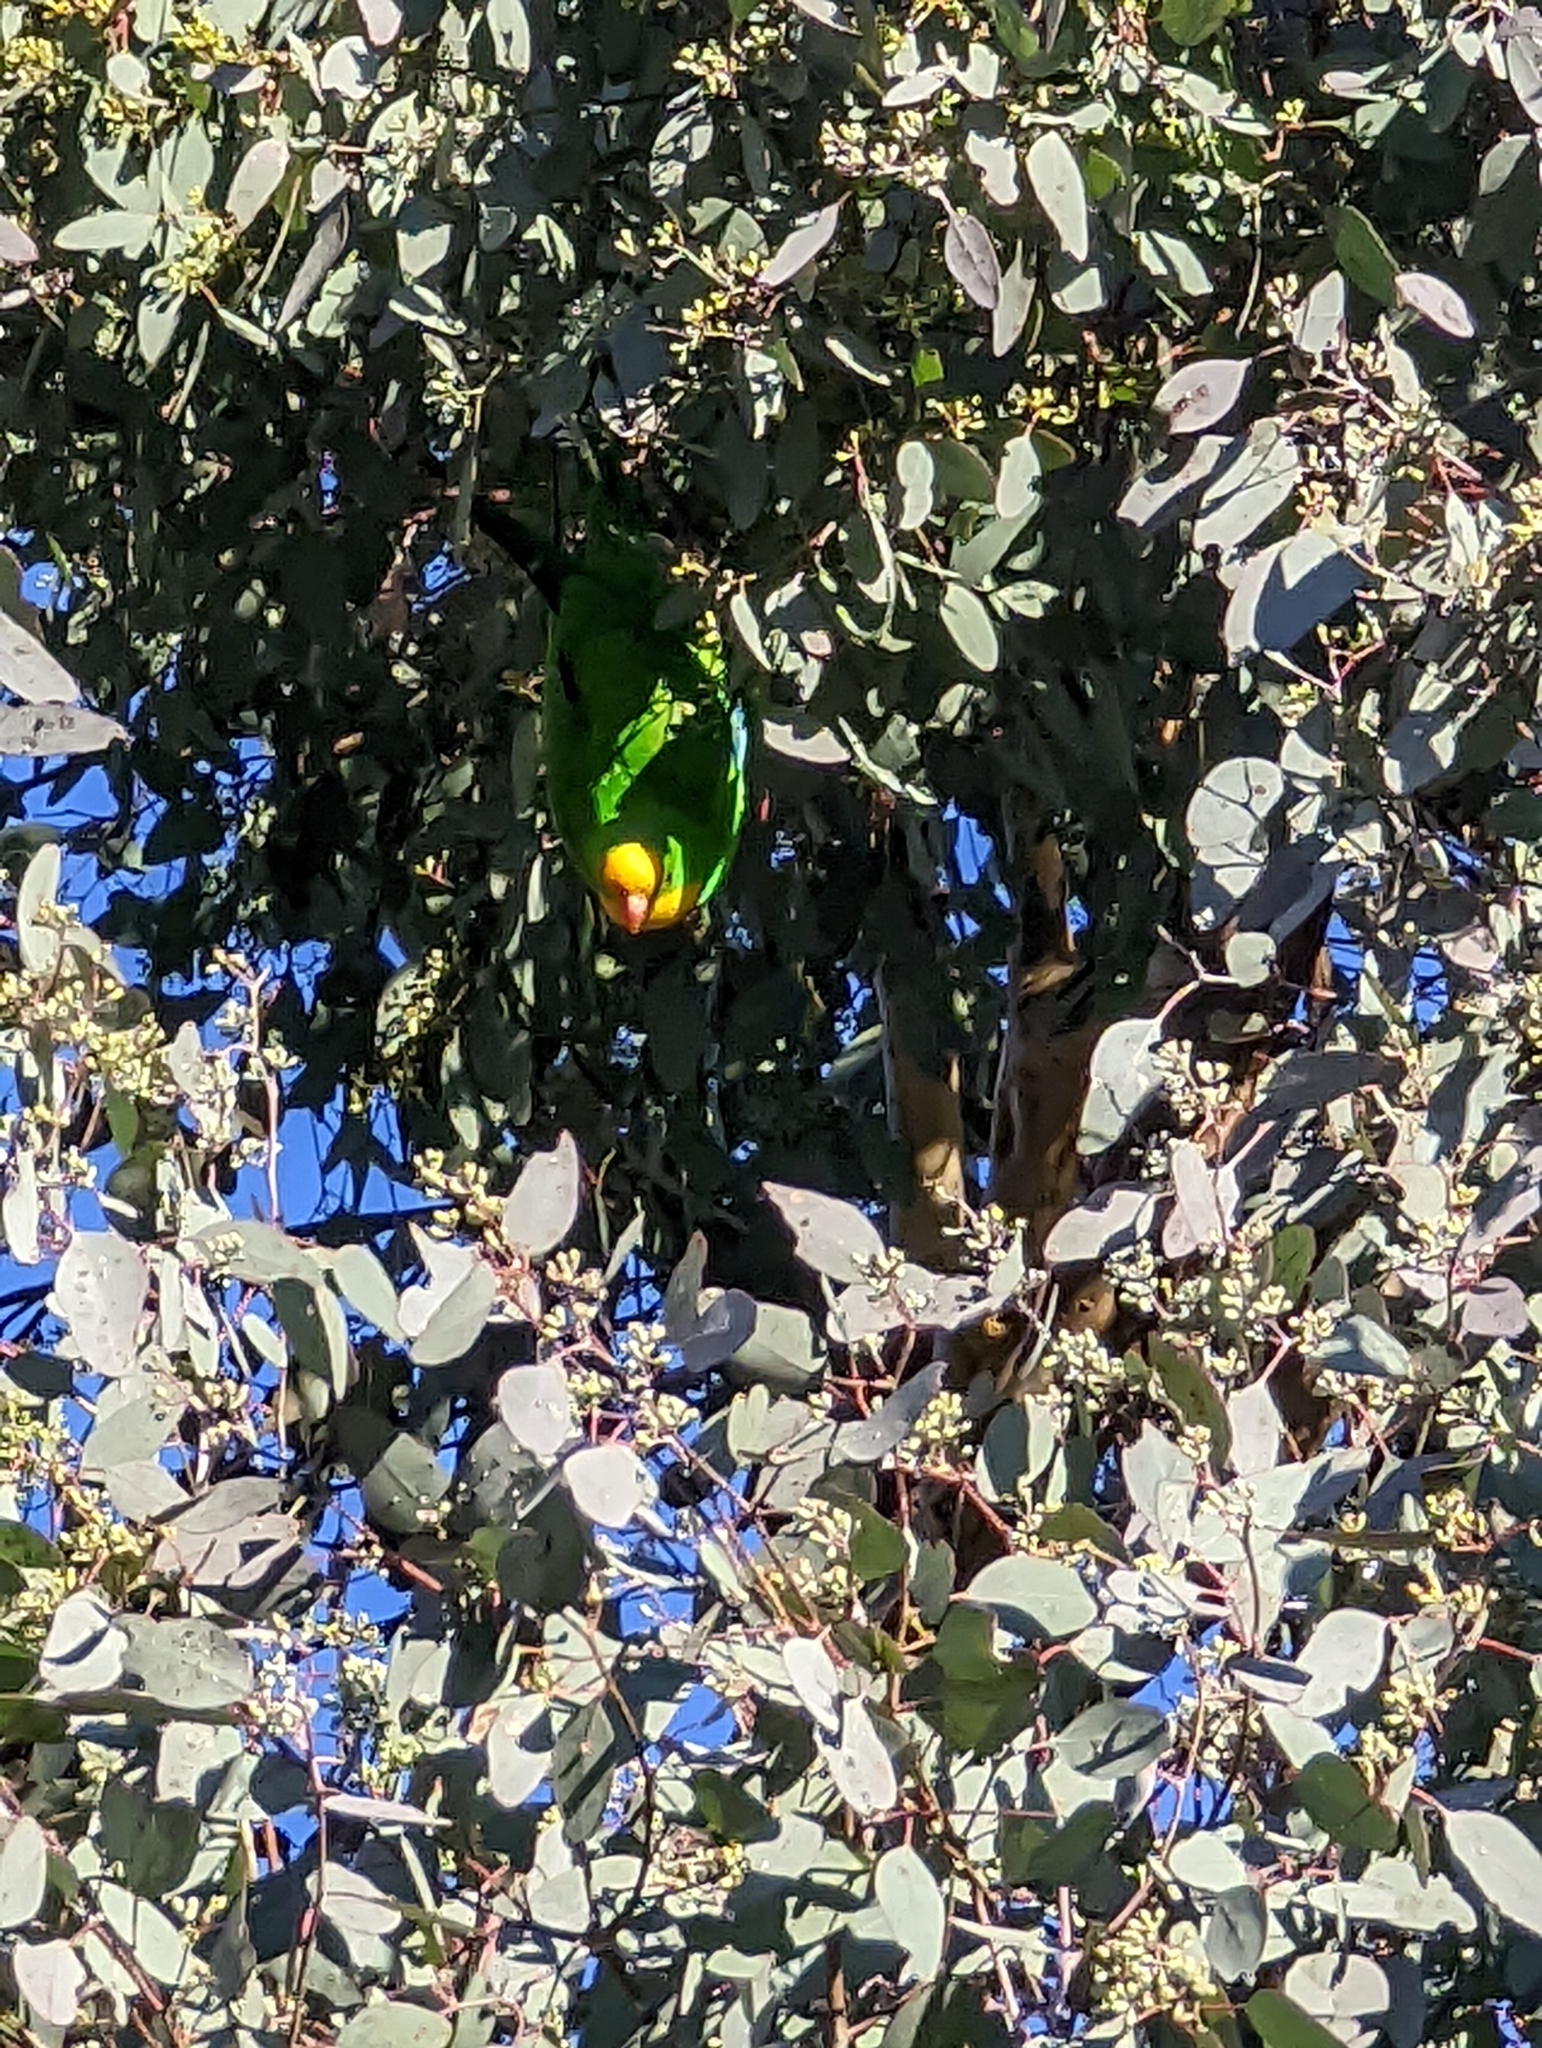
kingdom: Animalia
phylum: Chordata
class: Aves
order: Psittaciformes
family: Psittacidae
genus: Polytelis
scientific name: Polytelis swainsonii
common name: Superb parrot
